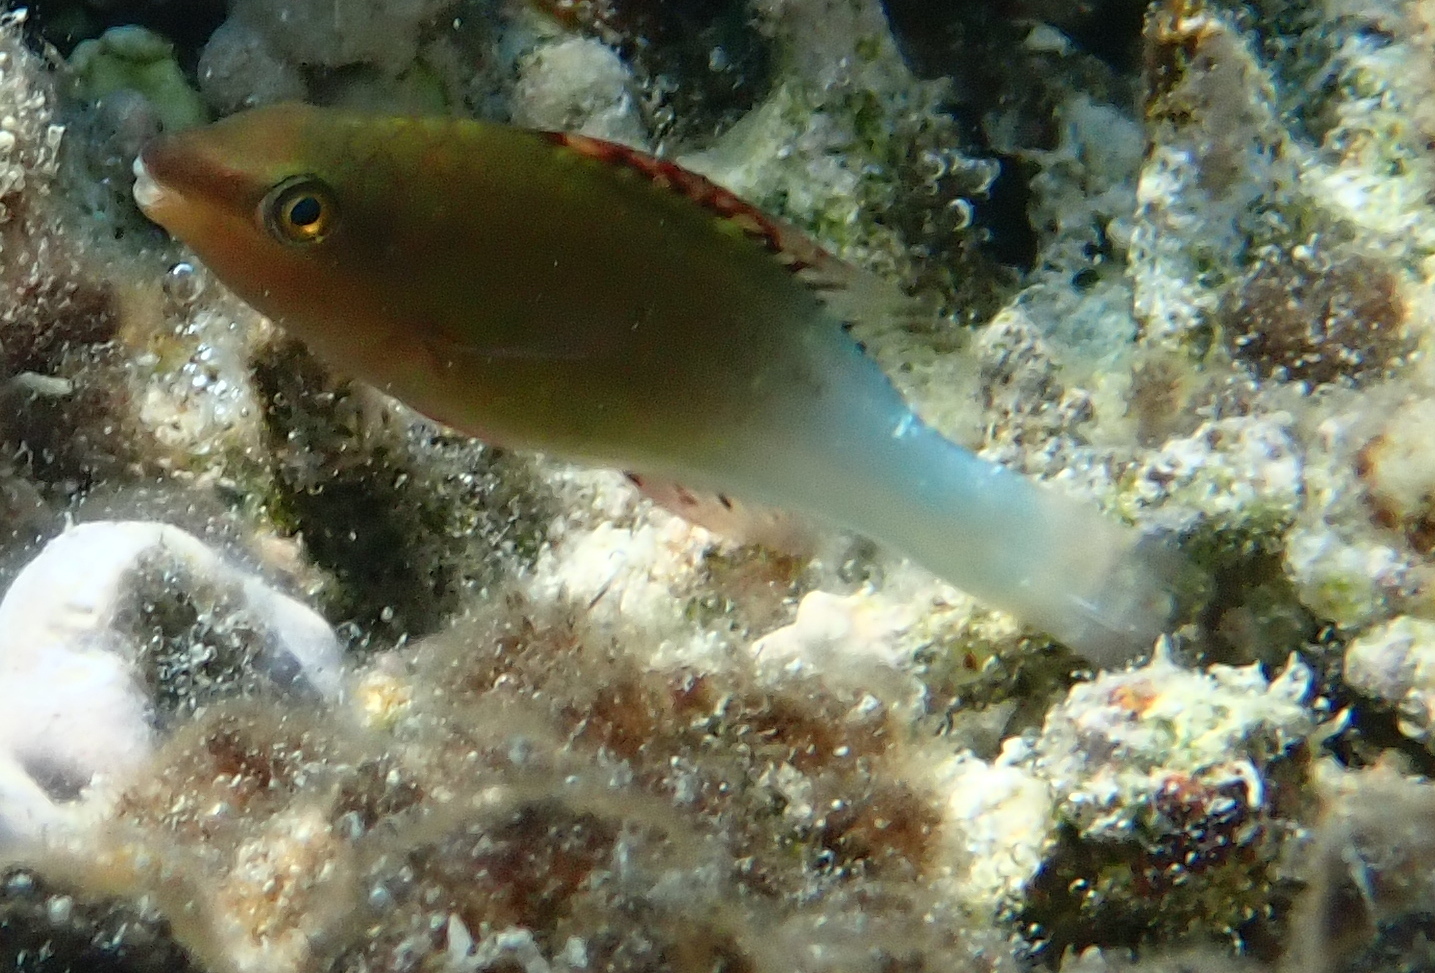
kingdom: Animalia
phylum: Chordata
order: Perciformes
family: Scaridae
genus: Scarus
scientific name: Scarus frenatus
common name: Bridled parrotfish
